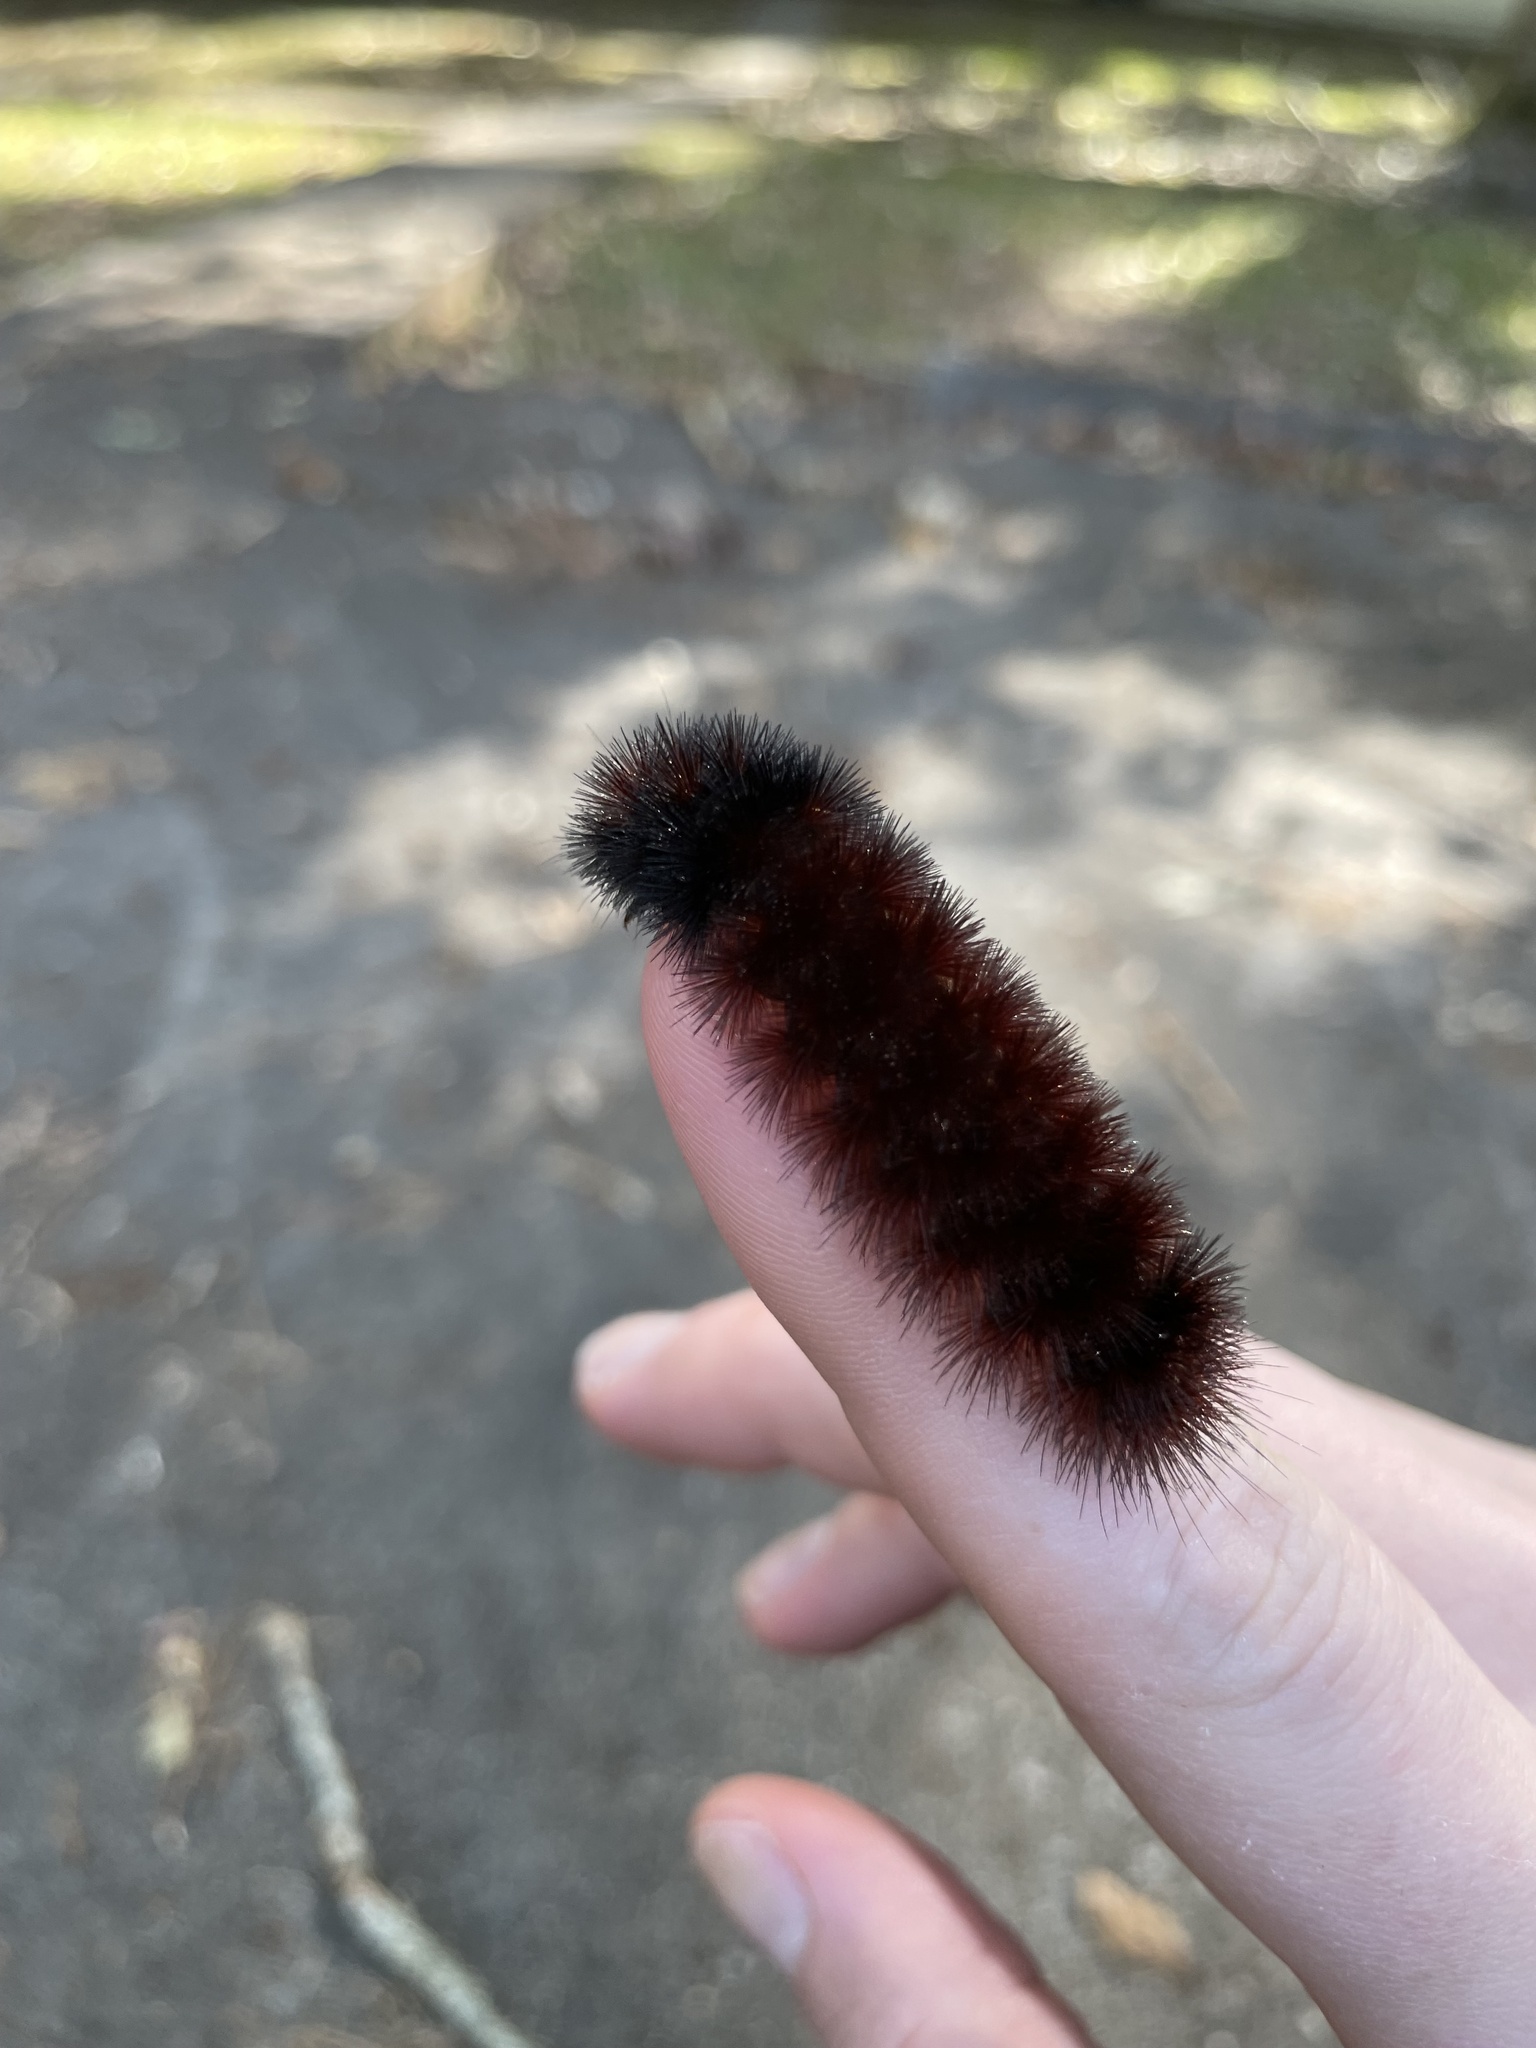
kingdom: Animalia
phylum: Arthropoda
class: Insecta
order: Lepidoptera
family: Erebidae
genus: Pyrrharctia
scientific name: Pyrrharctia isabella
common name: Isabella tiger moth
